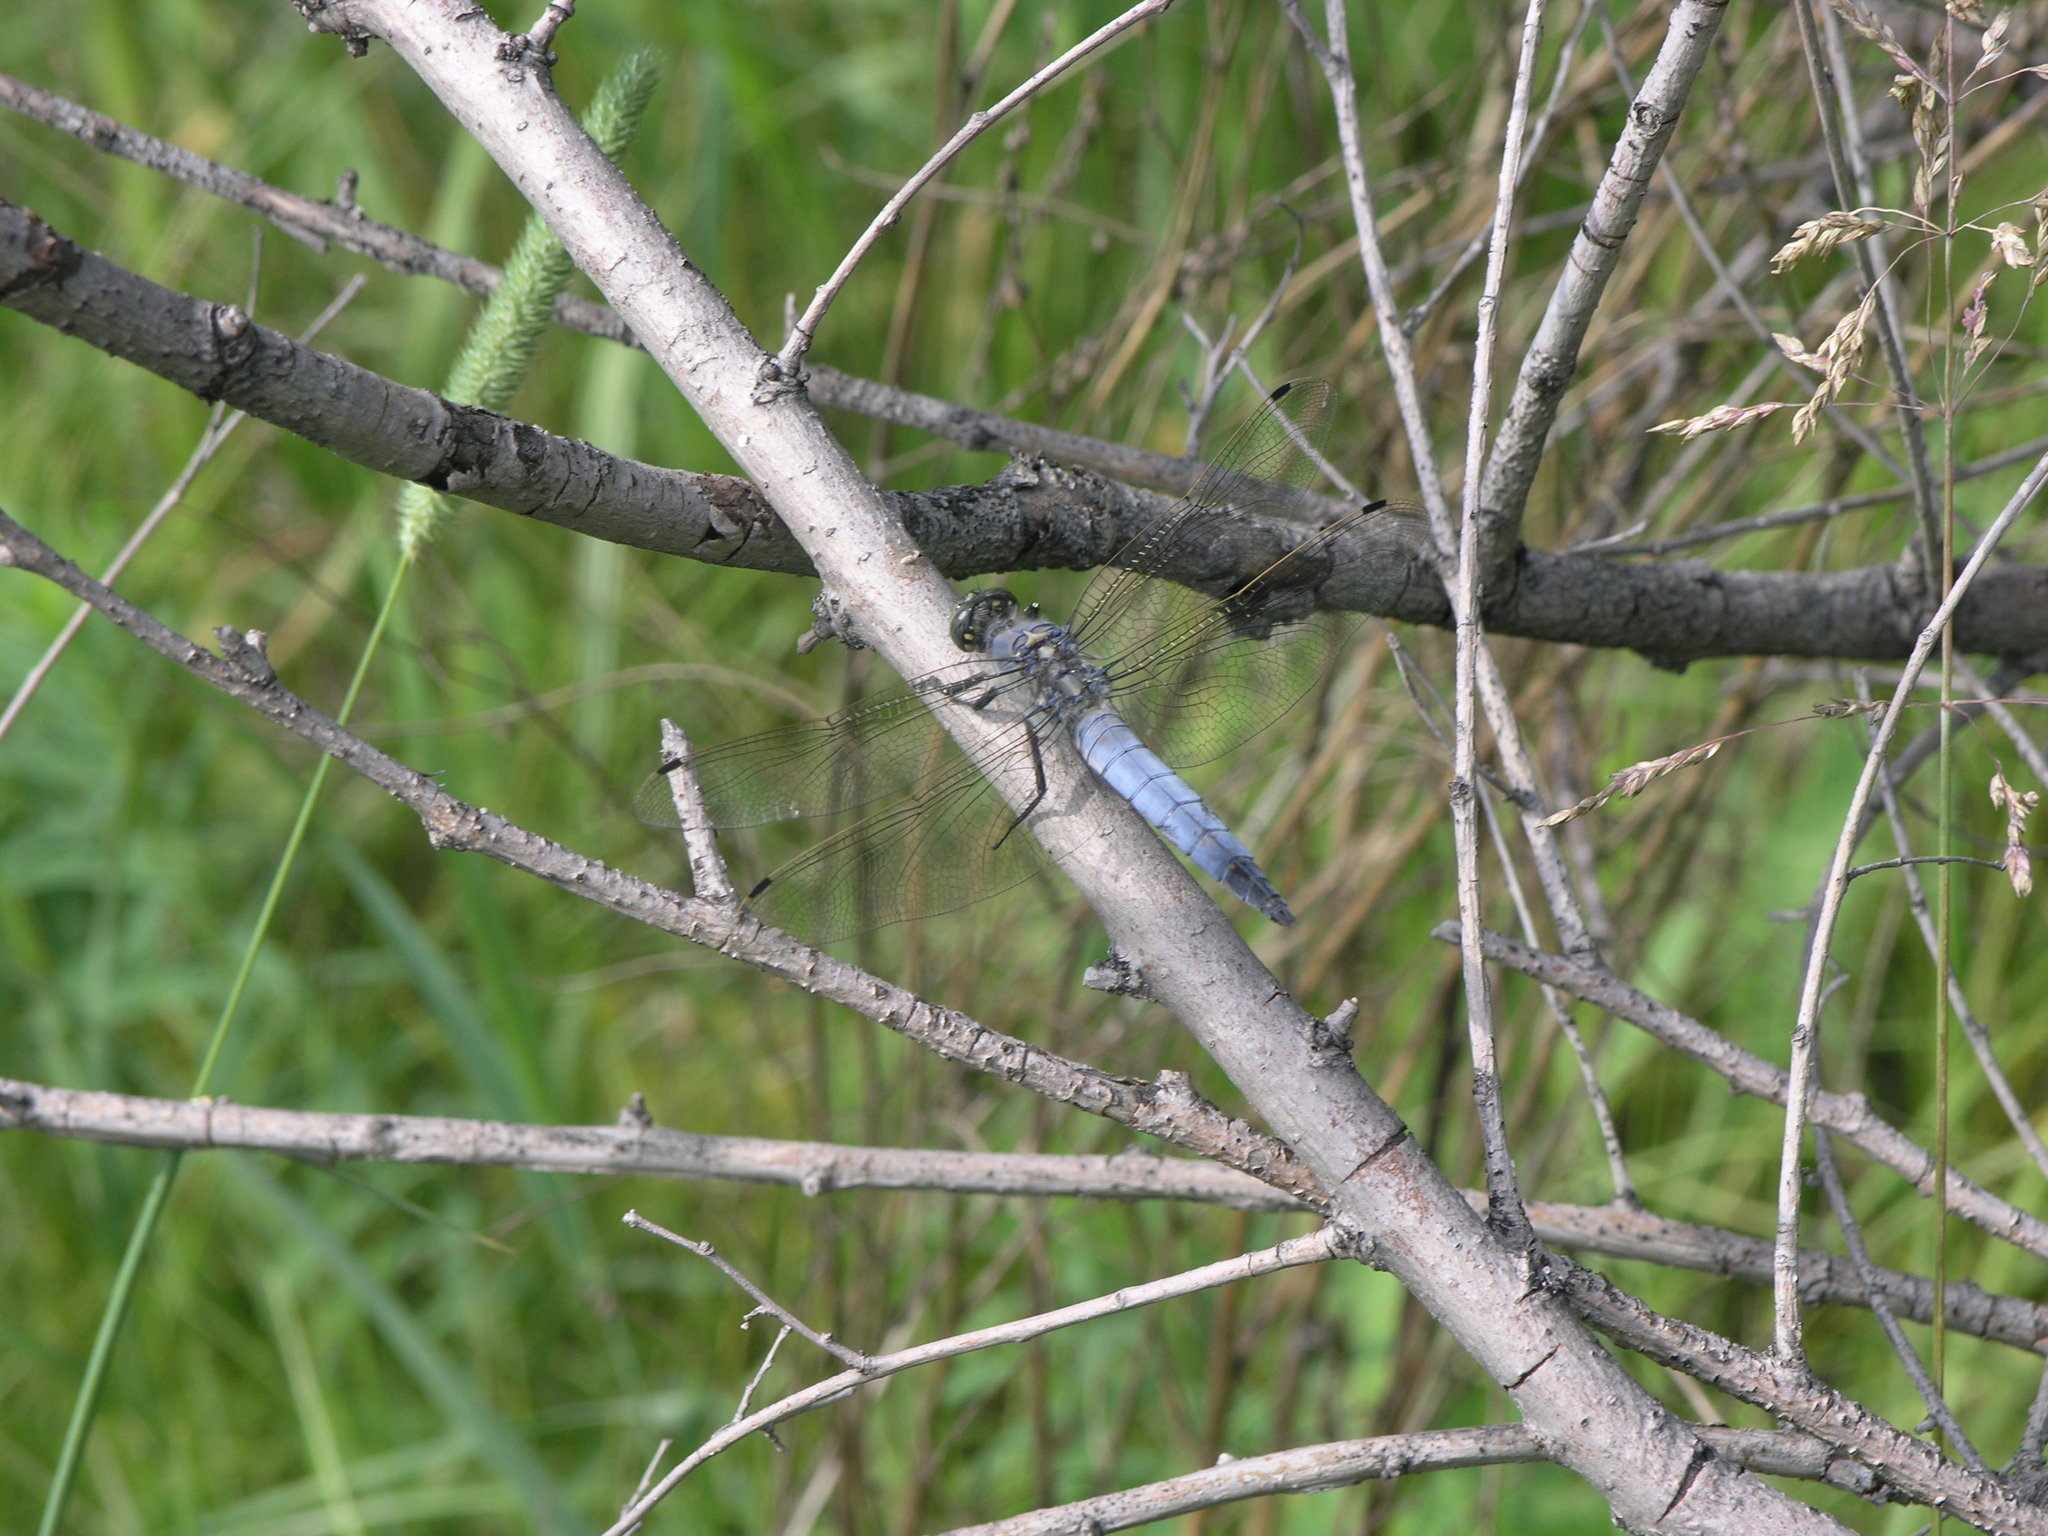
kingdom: Animalia
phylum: Arthropoda
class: Insecta
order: Odonata
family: Libellulidae
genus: Orthetrum
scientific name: Orthetrum cancellatum
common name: Black-tailed skimmer
